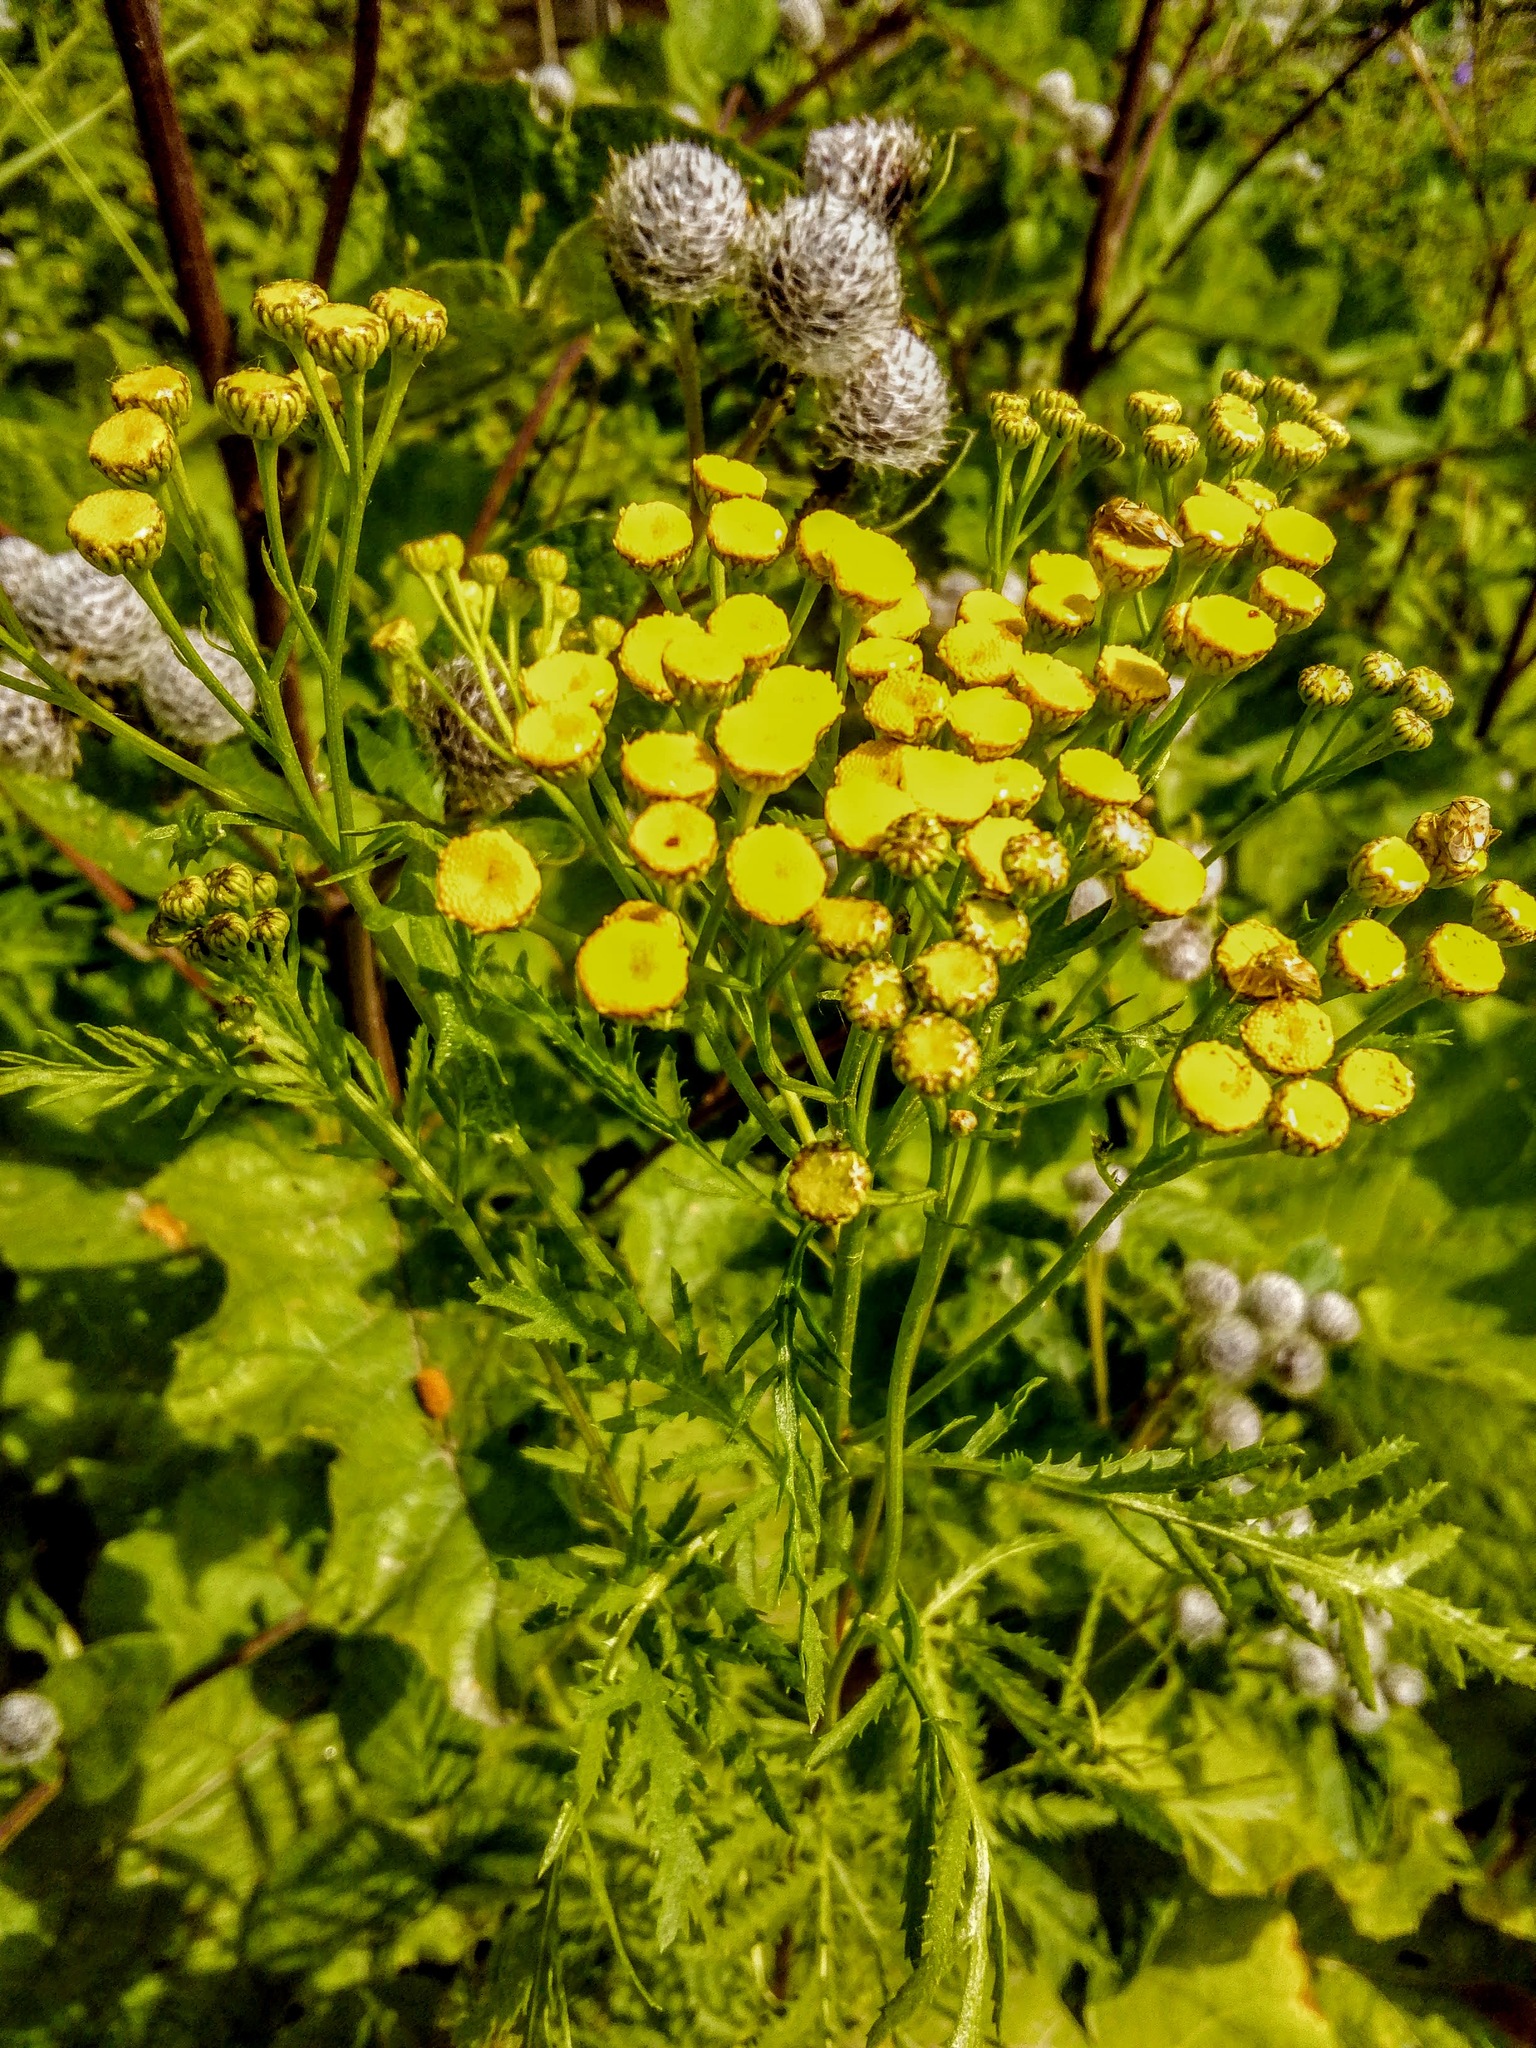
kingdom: Plantae
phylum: Tracheophyta
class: Magnoliopsida
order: Asterales
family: Asteraceae
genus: Tanacetum
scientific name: Tanacetum vulgare
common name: Common tansy
